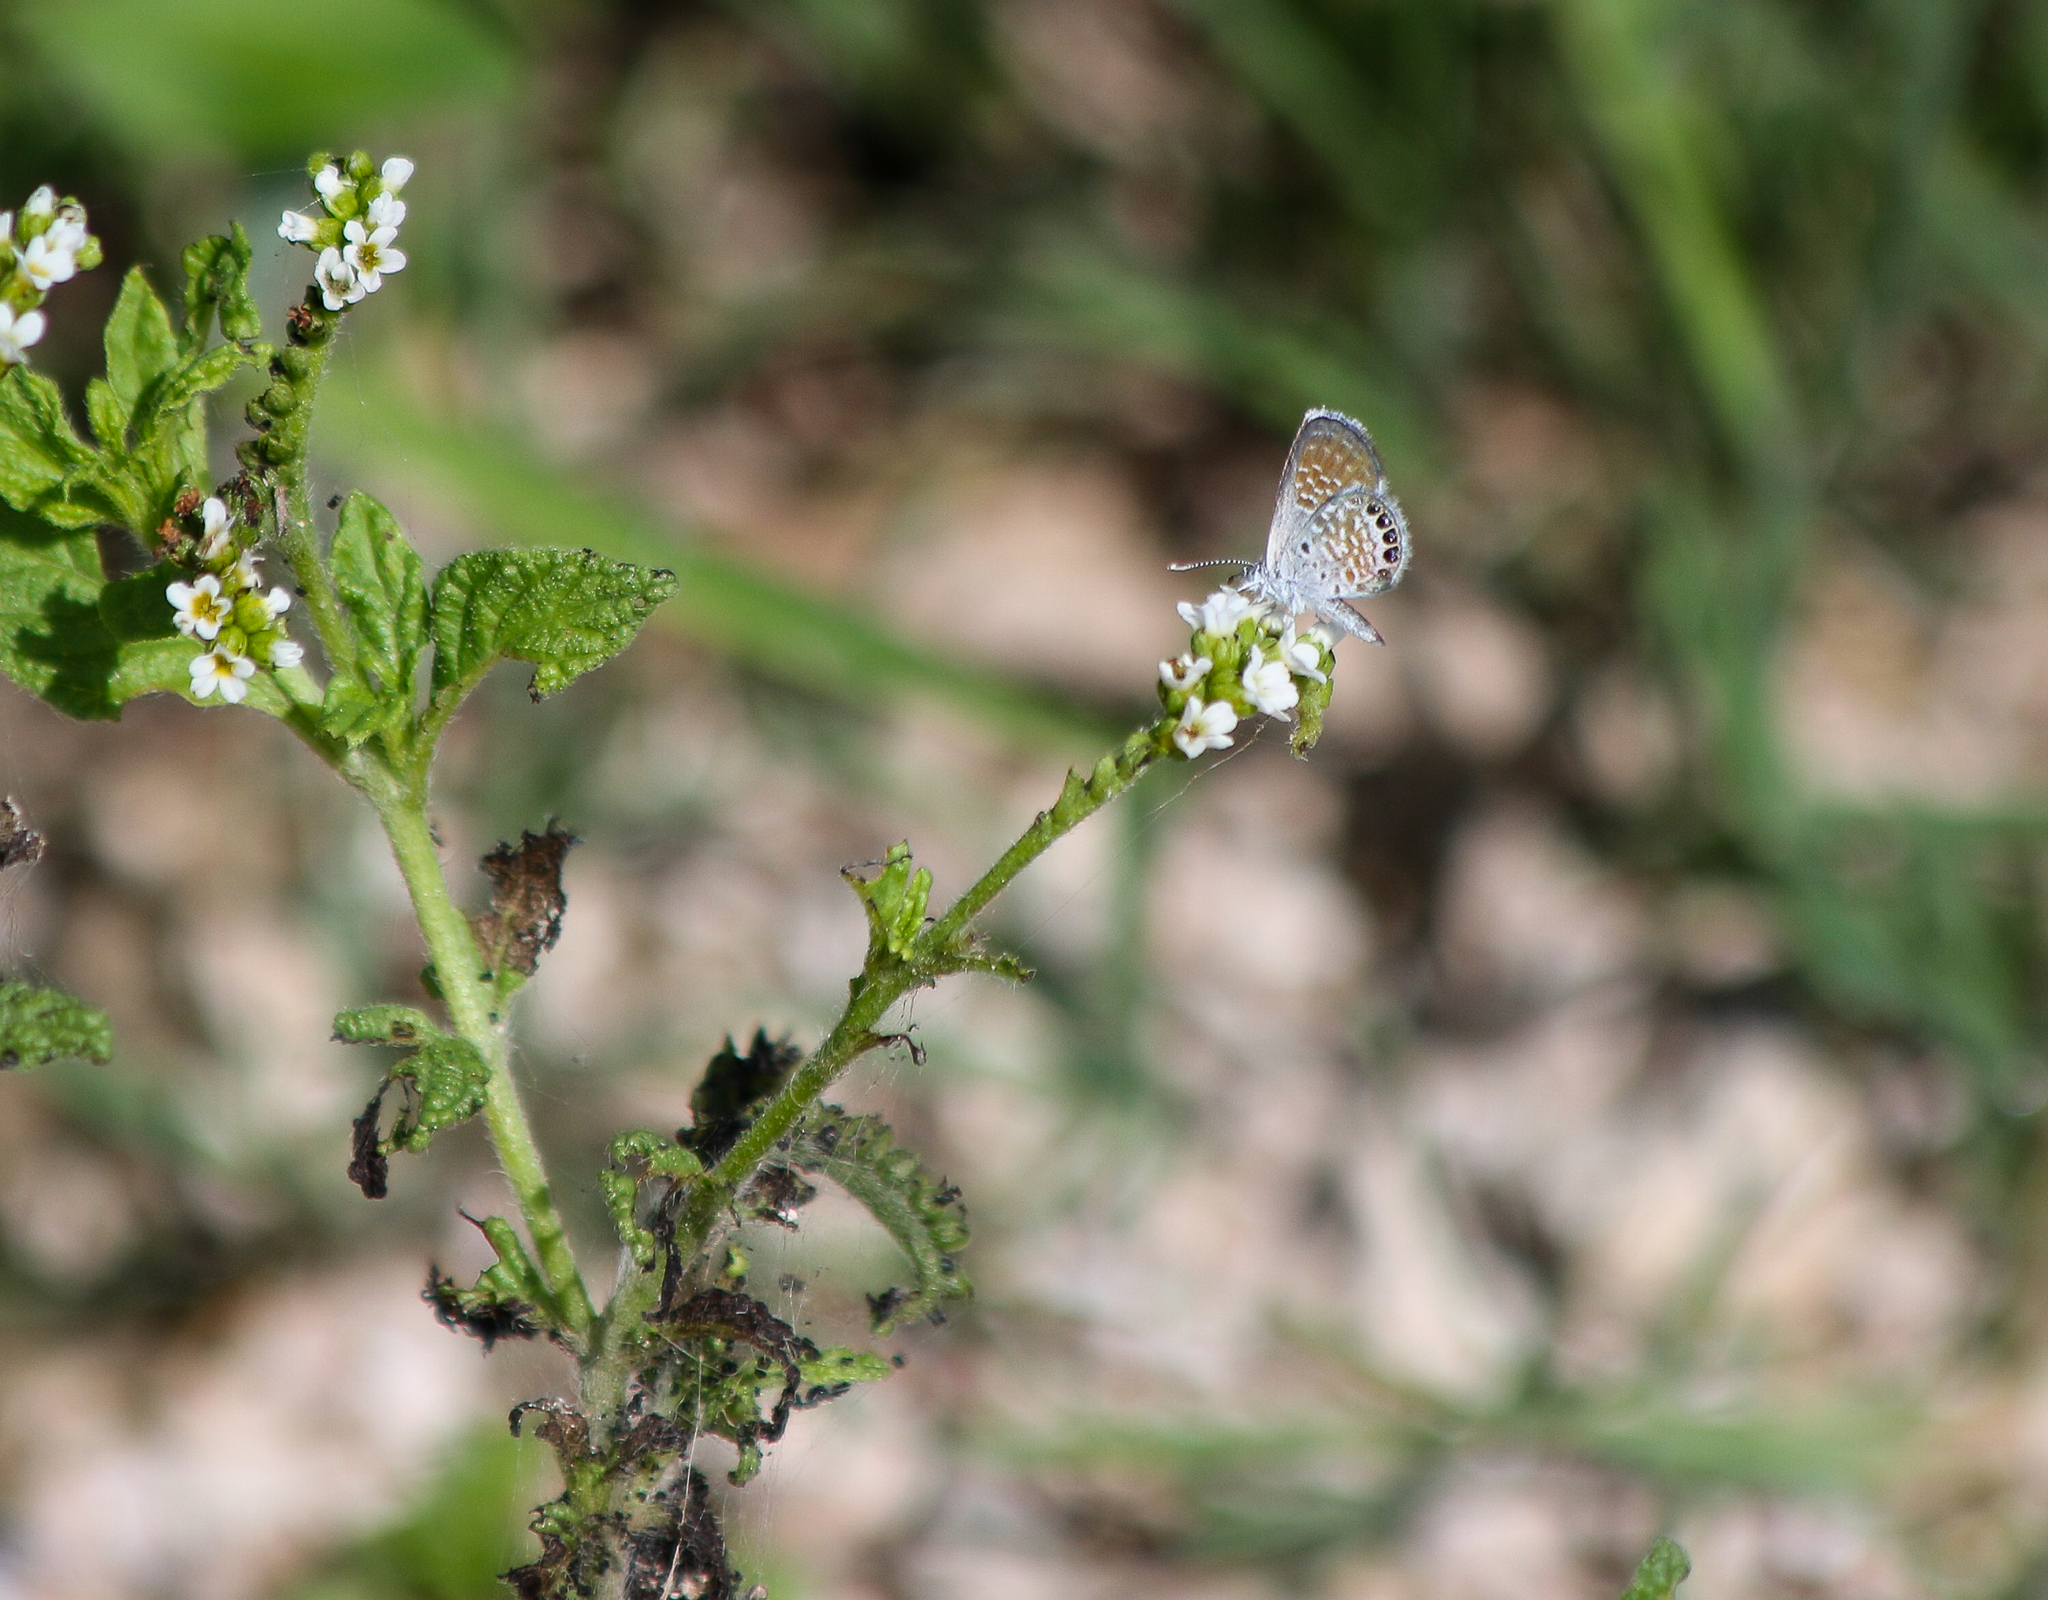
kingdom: Animalia
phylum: Arthropoda
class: Insecta
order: Lepidoptera
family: Lycaenidae
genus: Brephidium
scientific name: Brephidium exilis
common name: Pygmy blue
